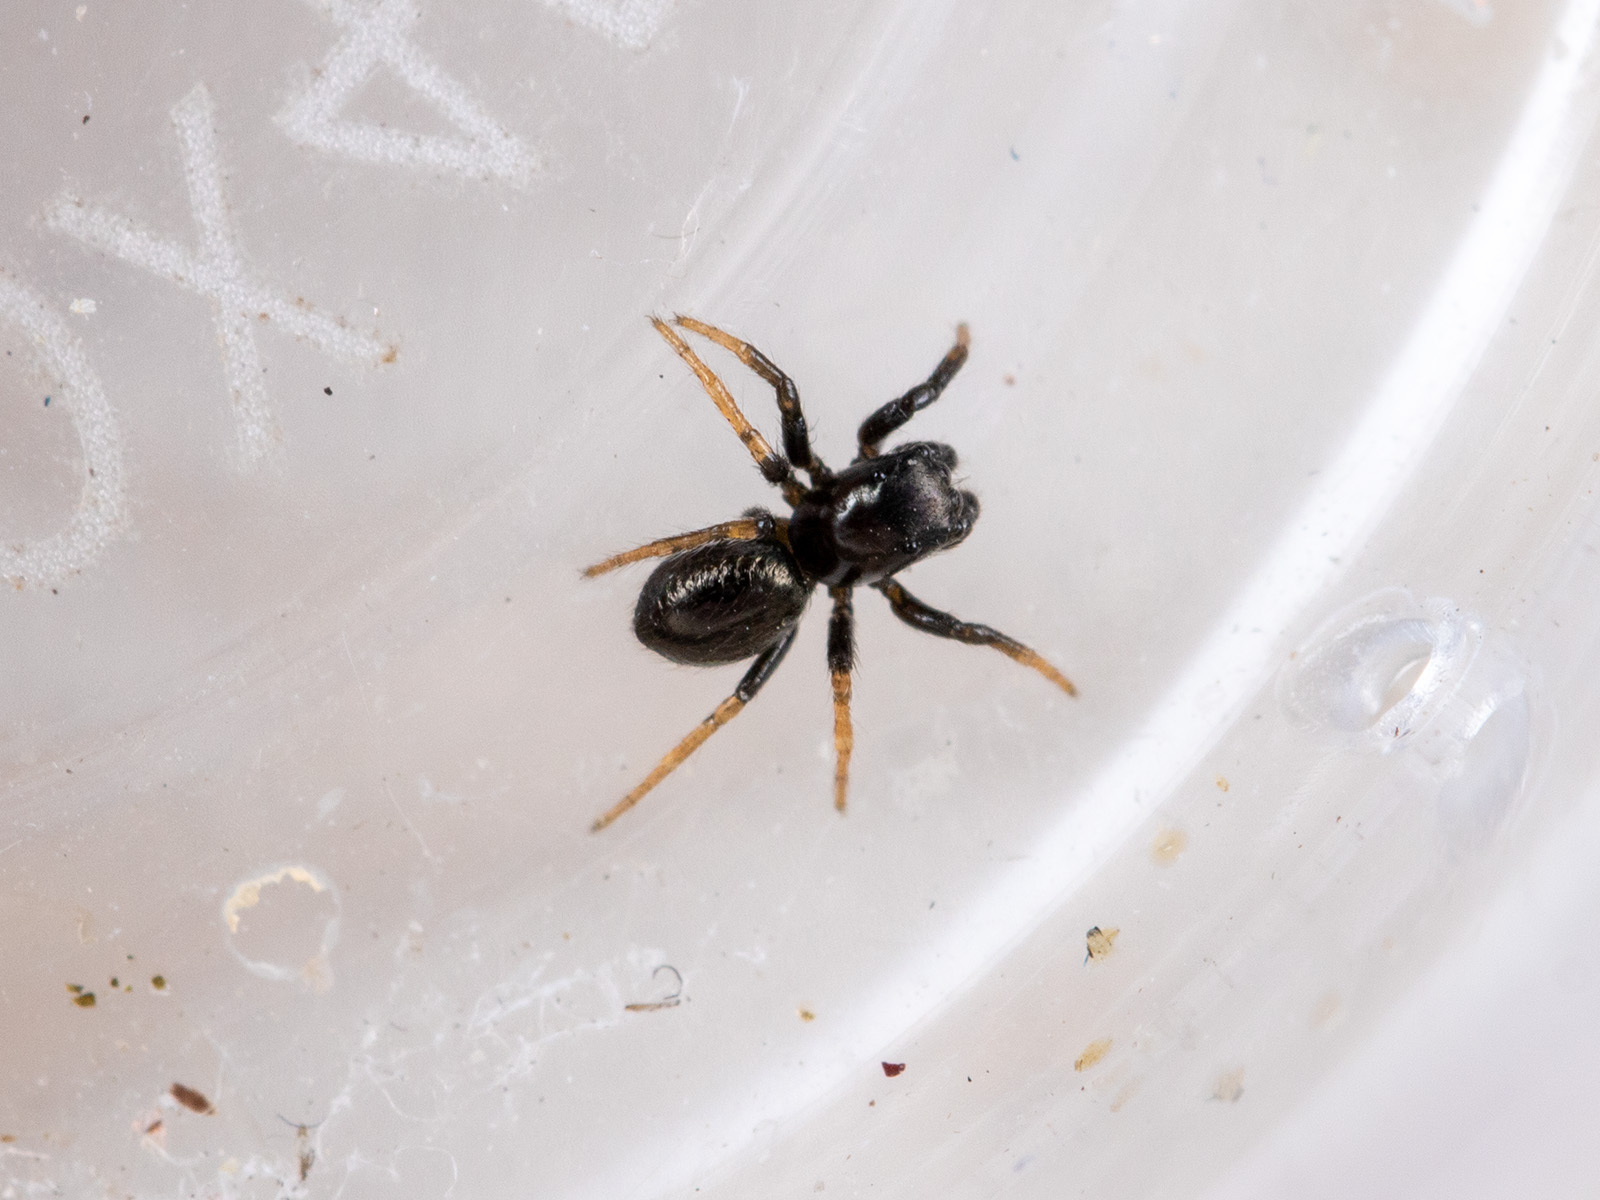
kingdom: Animalia
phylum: Arthropoda
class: Arachnida
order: Araneae
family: Salticidae
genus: Chalcoscirtus
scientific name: Chalcoscirtus karakurt
